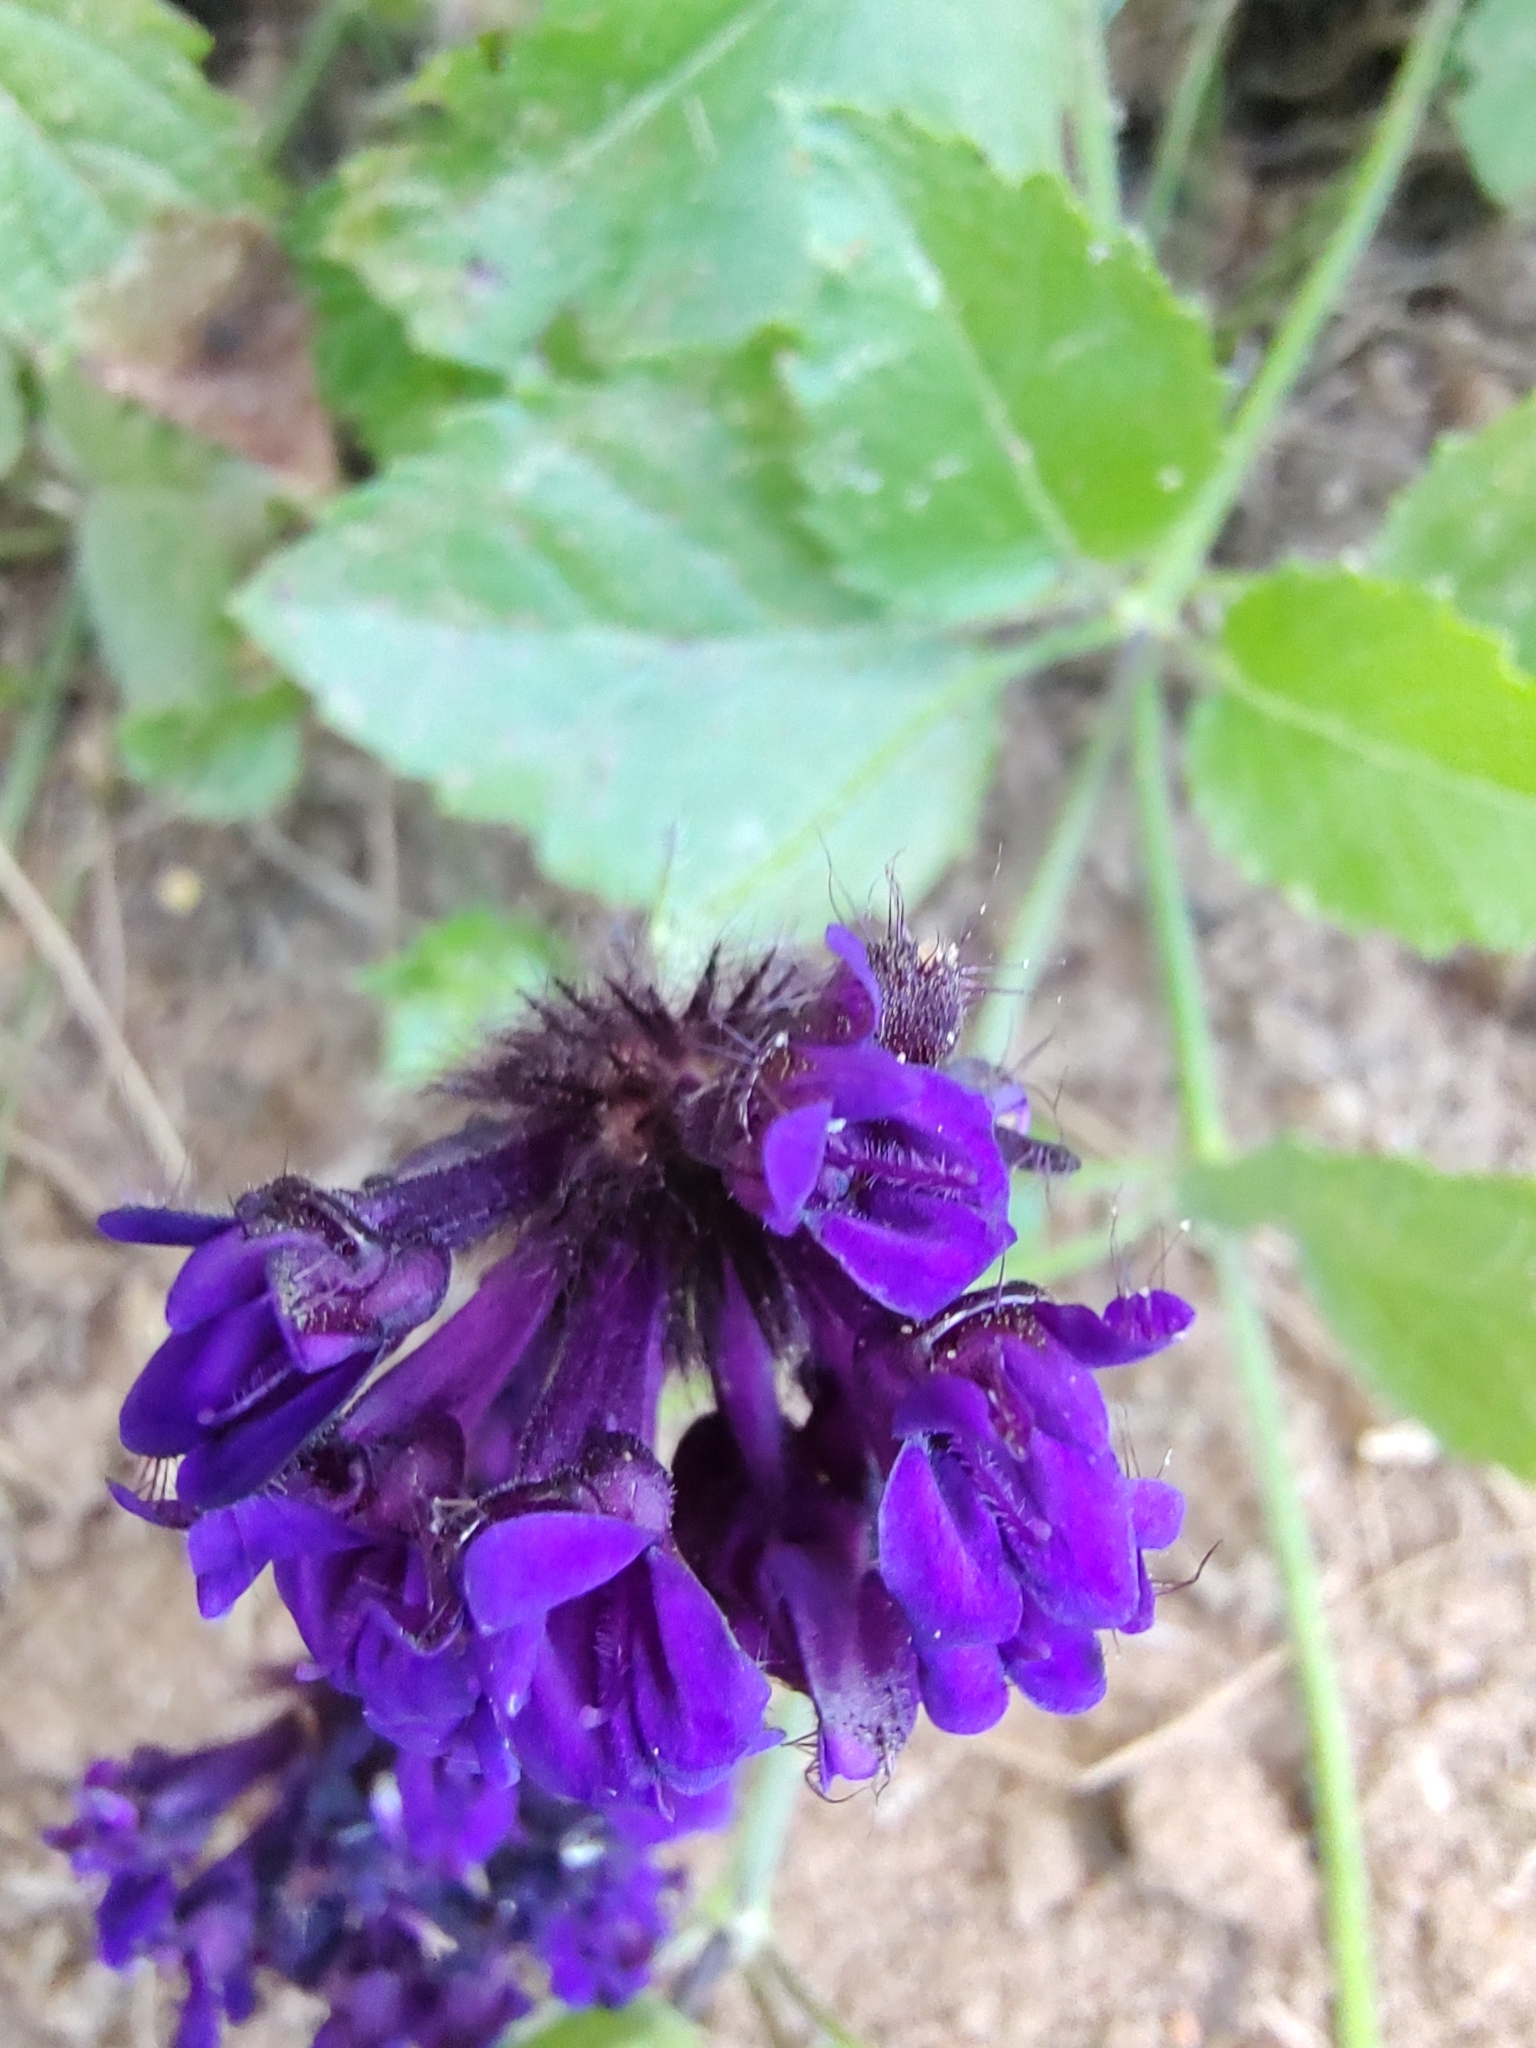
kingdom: Plantae
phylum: Tracheophyta
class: Magnoliopsida
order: Lamiales
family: Lamiaceae
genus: Rhaphiodon
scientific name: Rhaphiodon echinus
